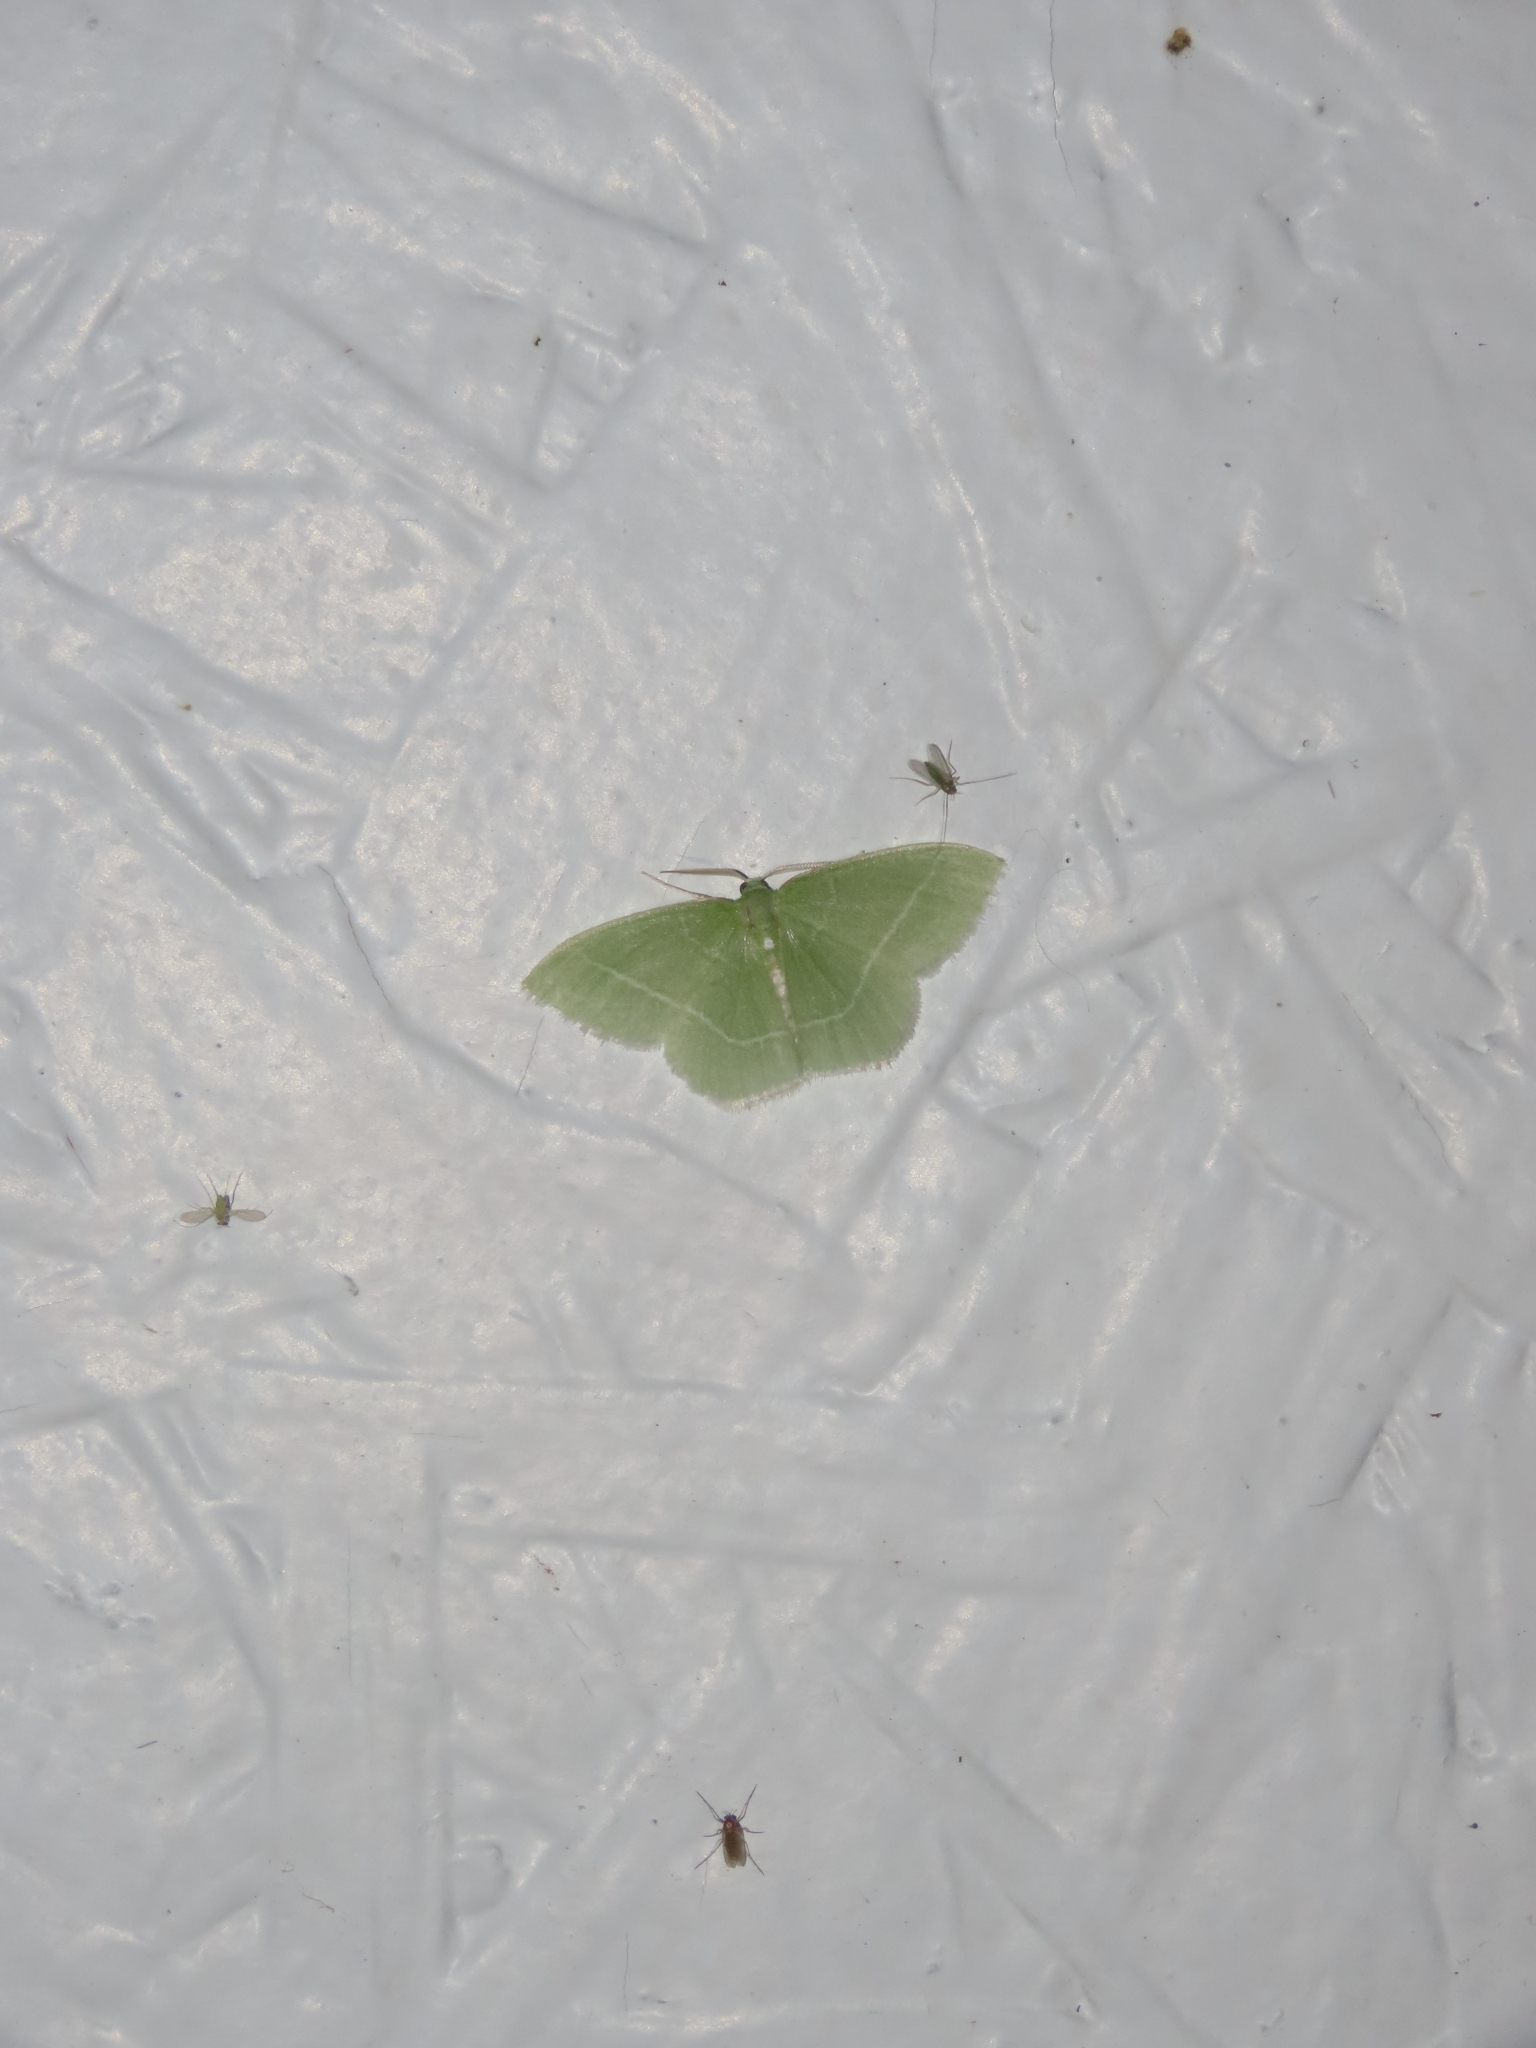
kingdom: Animalia
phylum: Arthropoda
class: Insecta
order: Lepidoptera
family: Geometridae
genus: Nemoria
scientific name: Nemoria mimosaria
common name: White-fringed emerald
